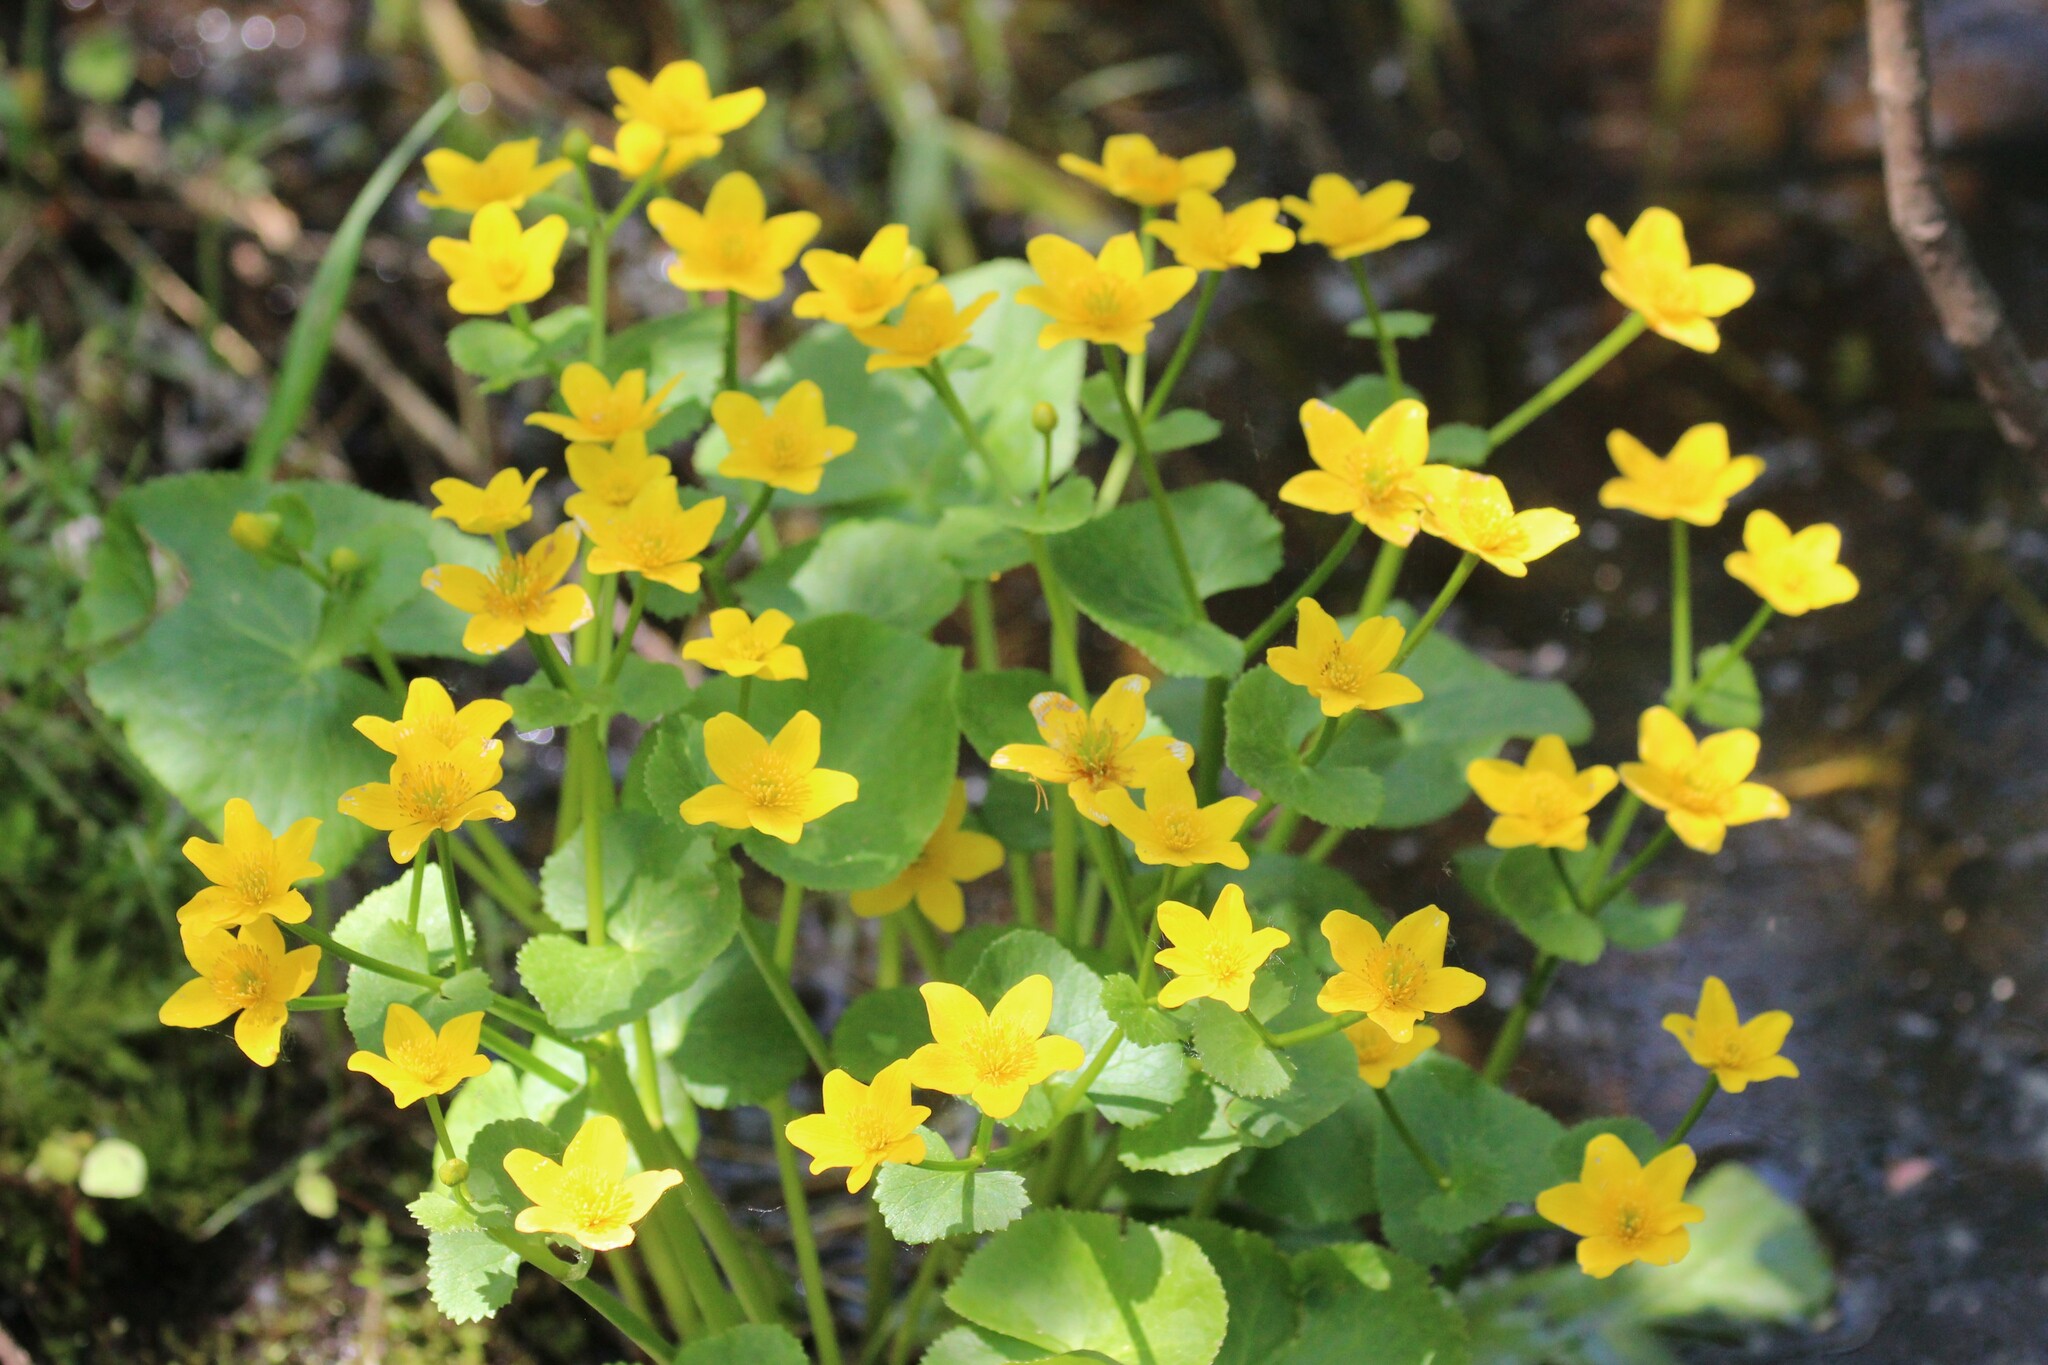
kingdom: Plantae
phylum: Tracheophyta
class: Magnoliopsida
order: Ranunculales
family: Ranunculaceae
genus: Caltha
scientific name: Caltha palustris
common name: Marsh marigold
